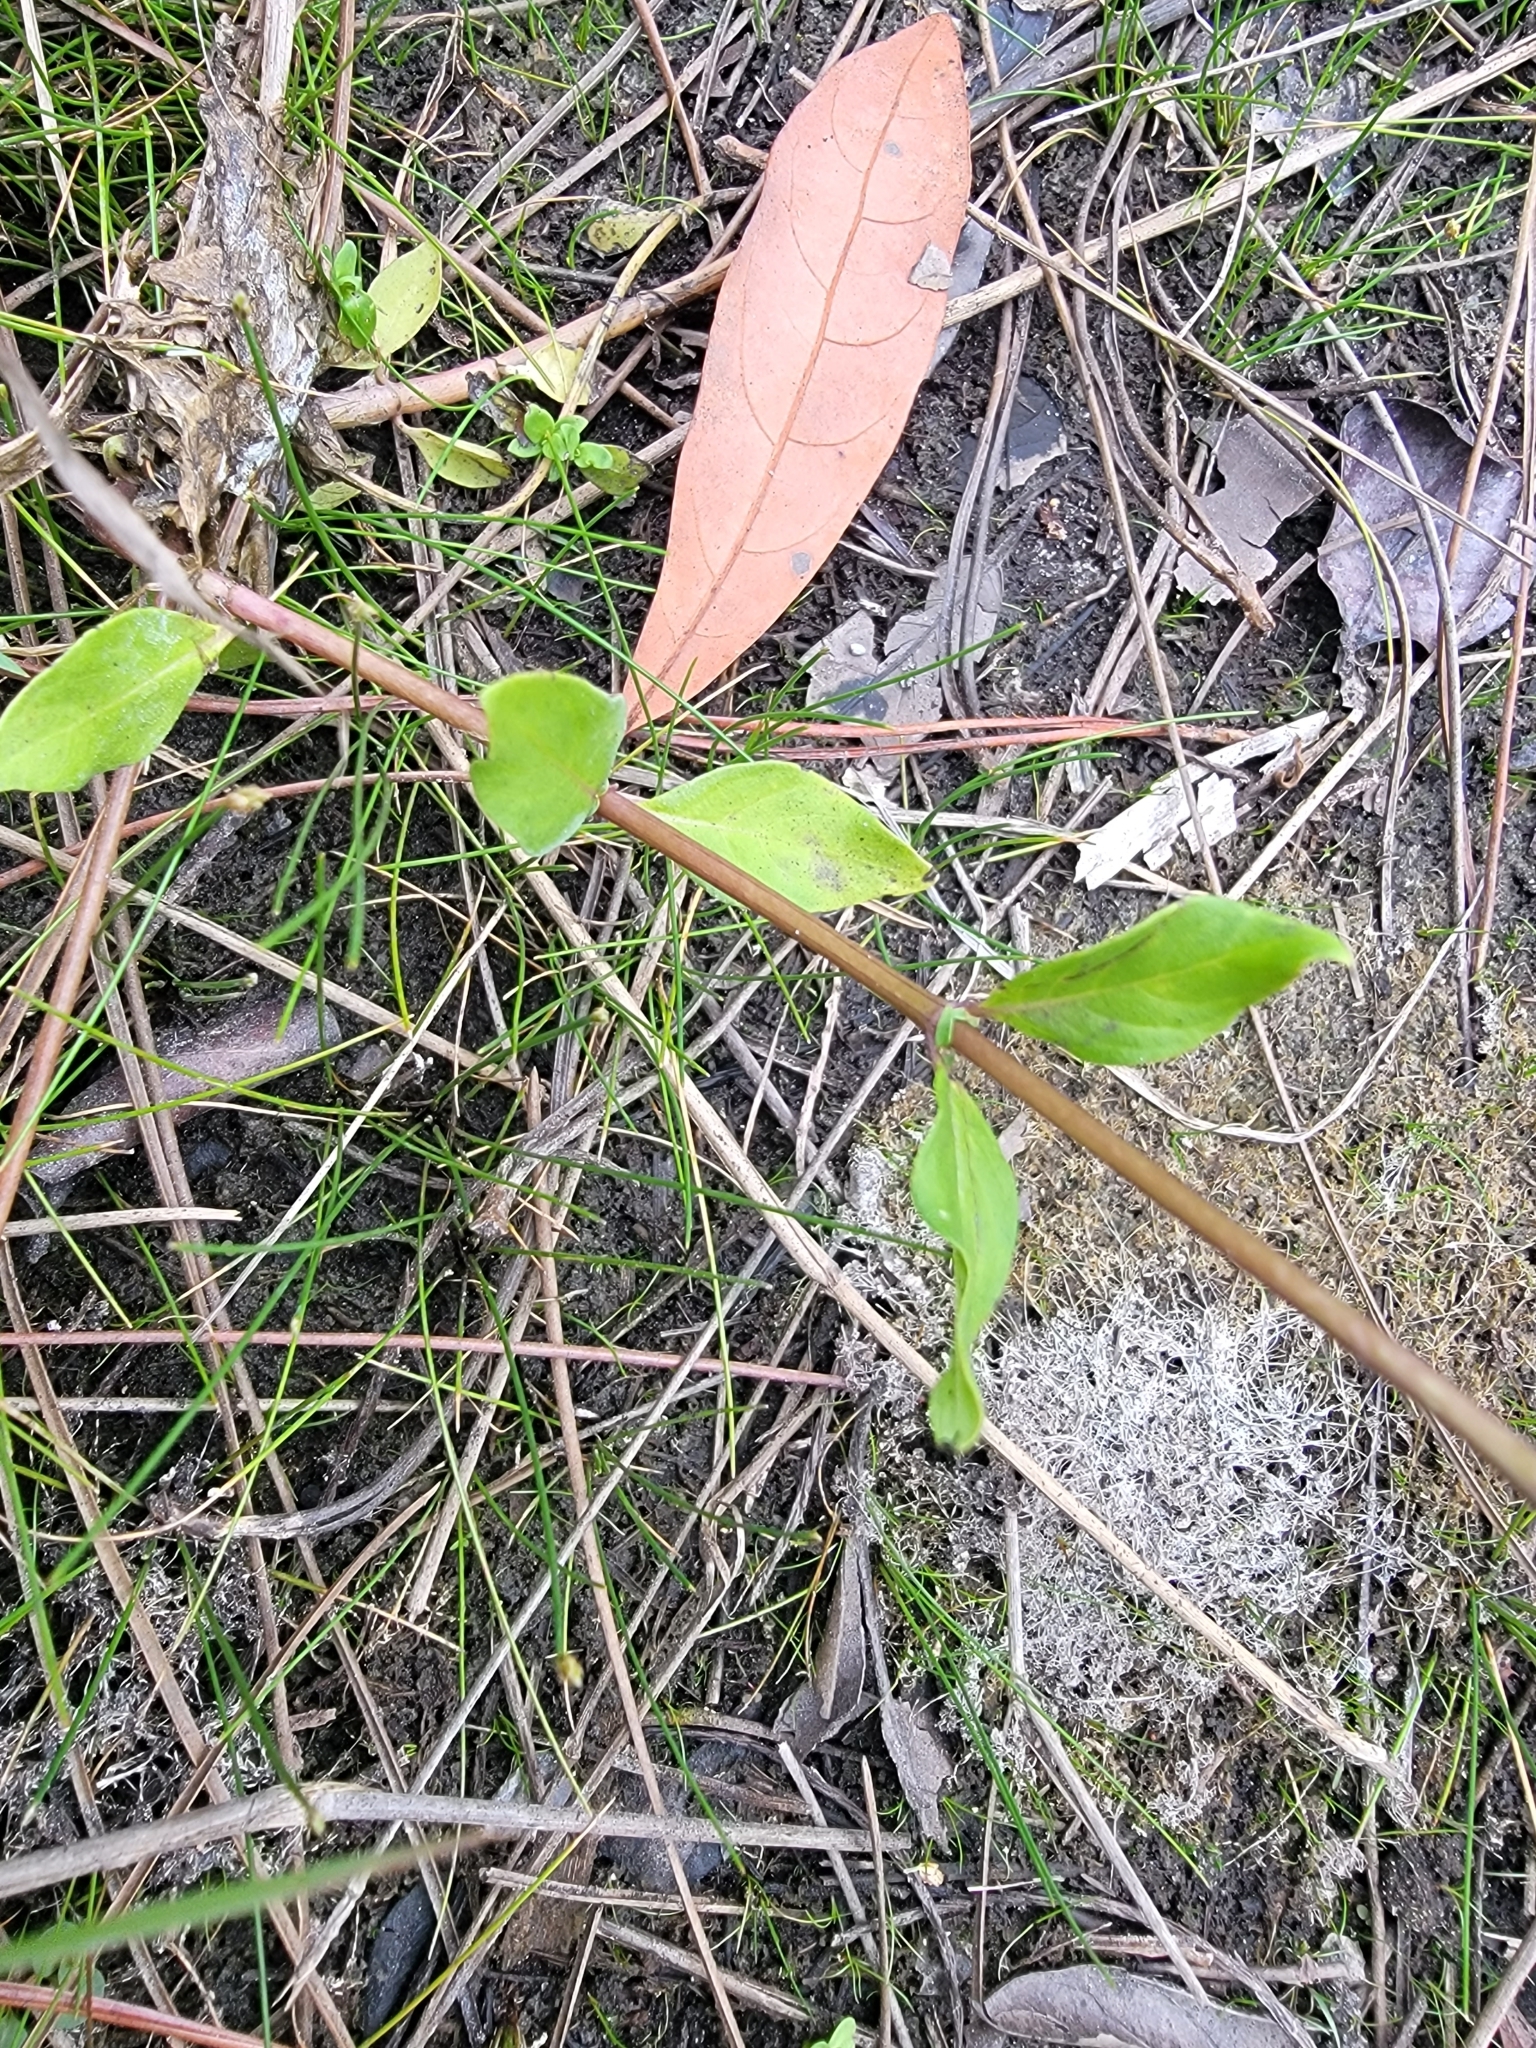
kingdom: Plantae
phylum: Tracheophyta
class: Magnoliopsida
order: Gentianales
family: Loganiaceae
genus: Mitreola
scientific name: Mitreola petiolata
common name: Lax hornpod
